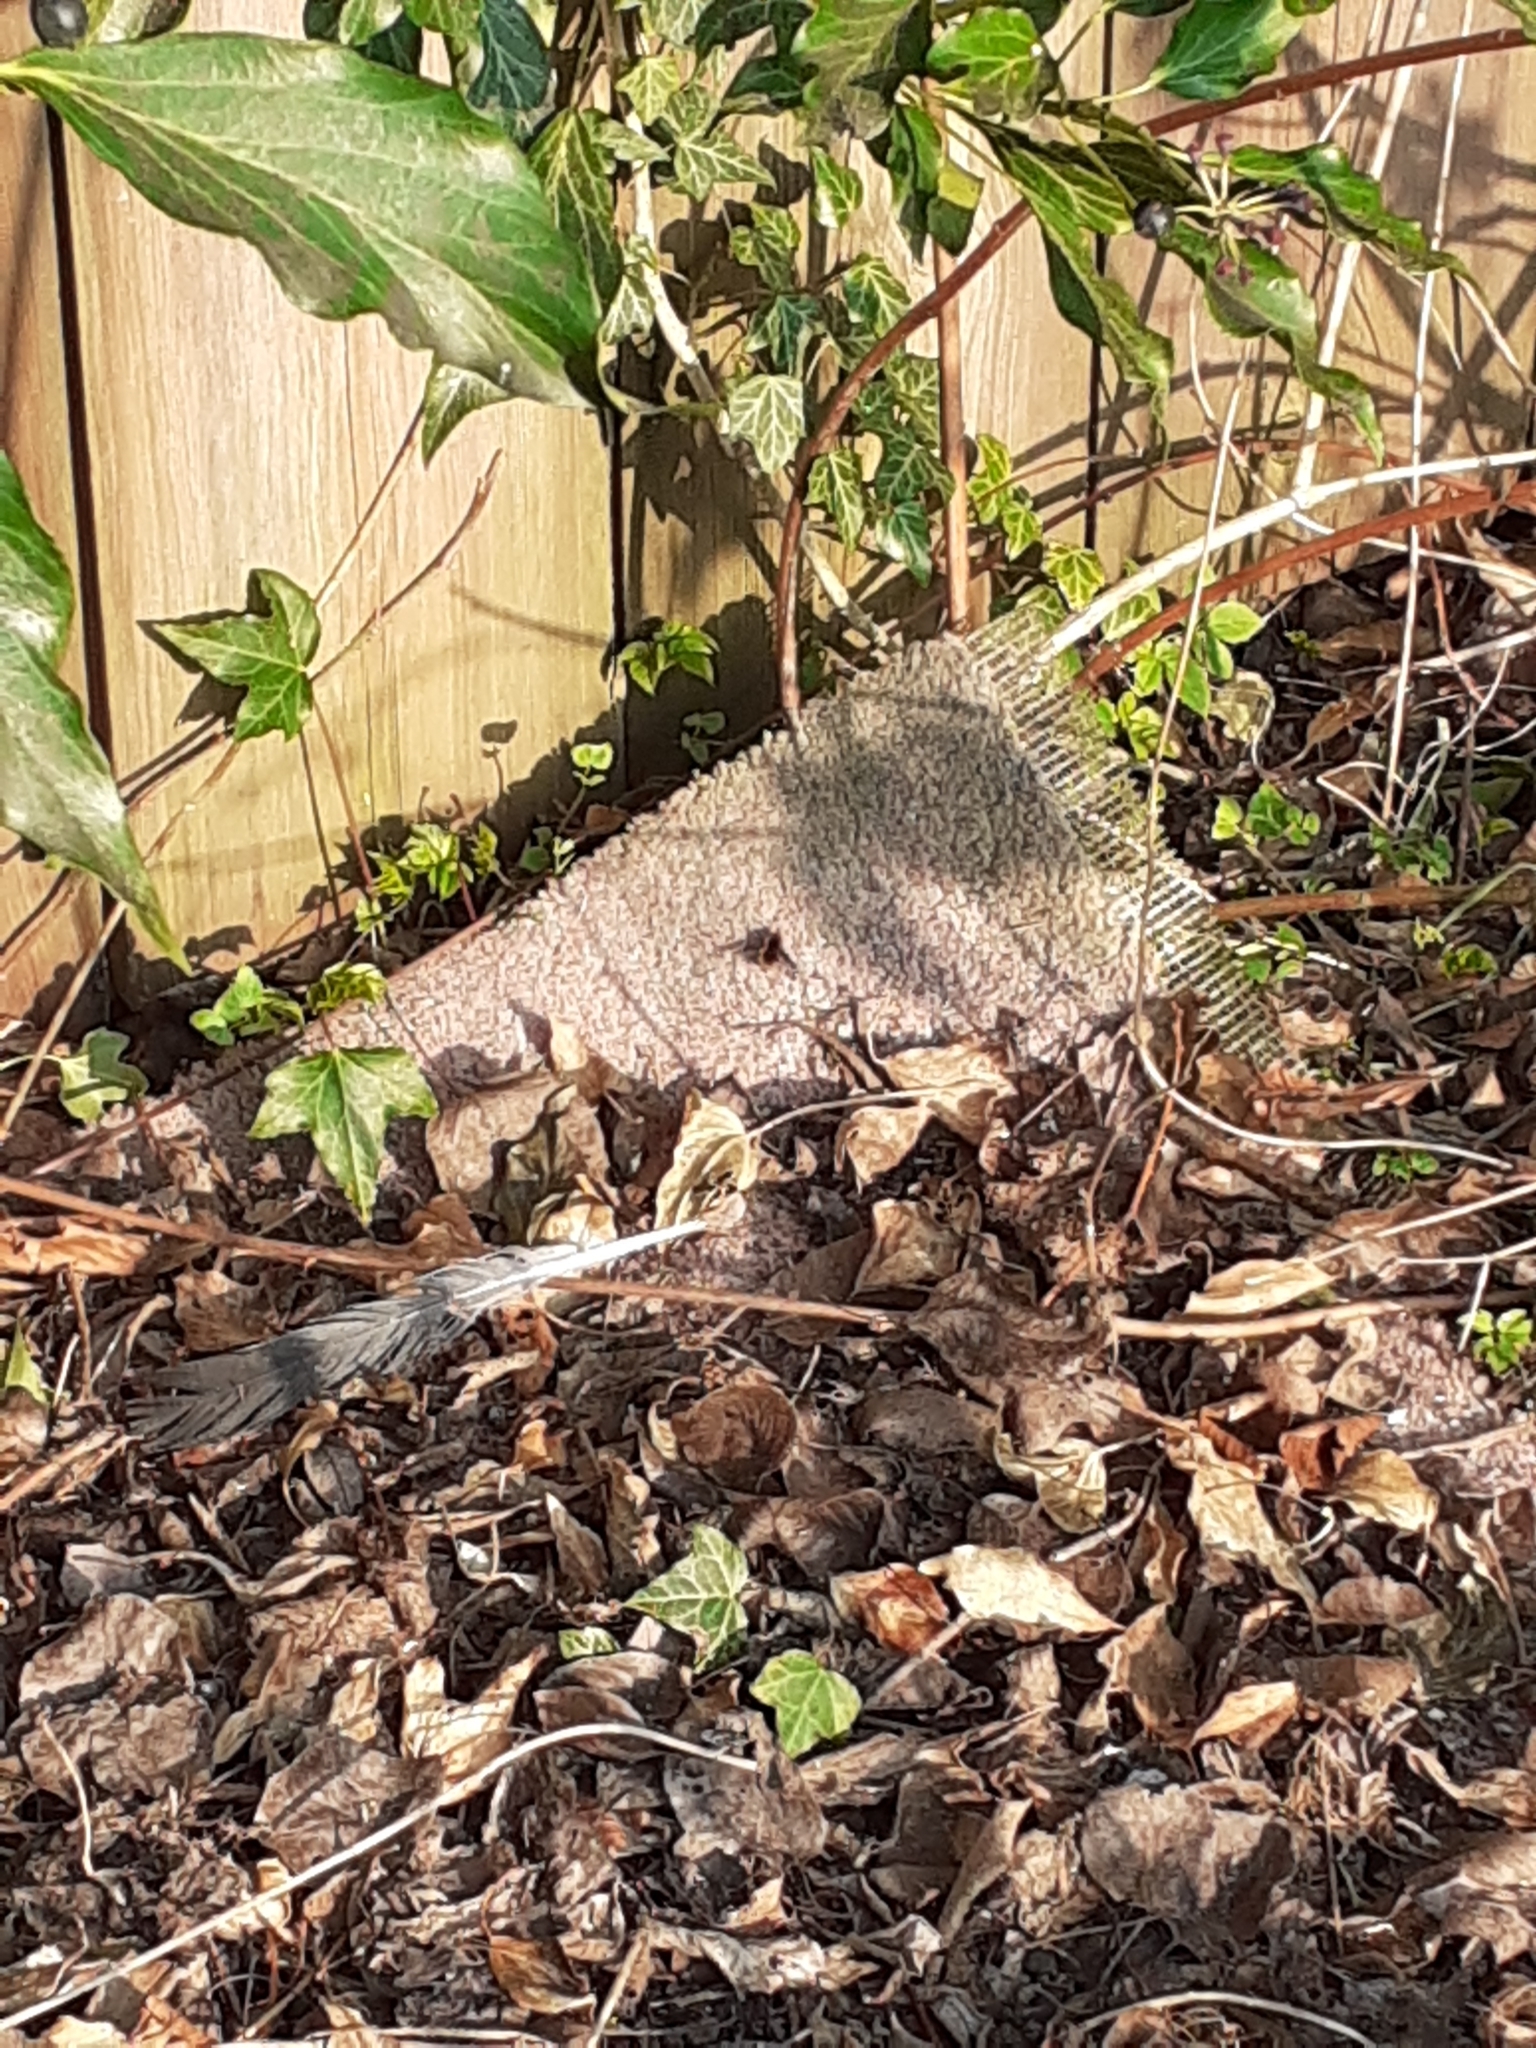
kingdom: Animalia
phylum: Arthropoda
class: Insecta
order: Diptera
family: Bombyliidae
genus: Bombylius
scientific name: Bombylius major
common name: Bee fly
